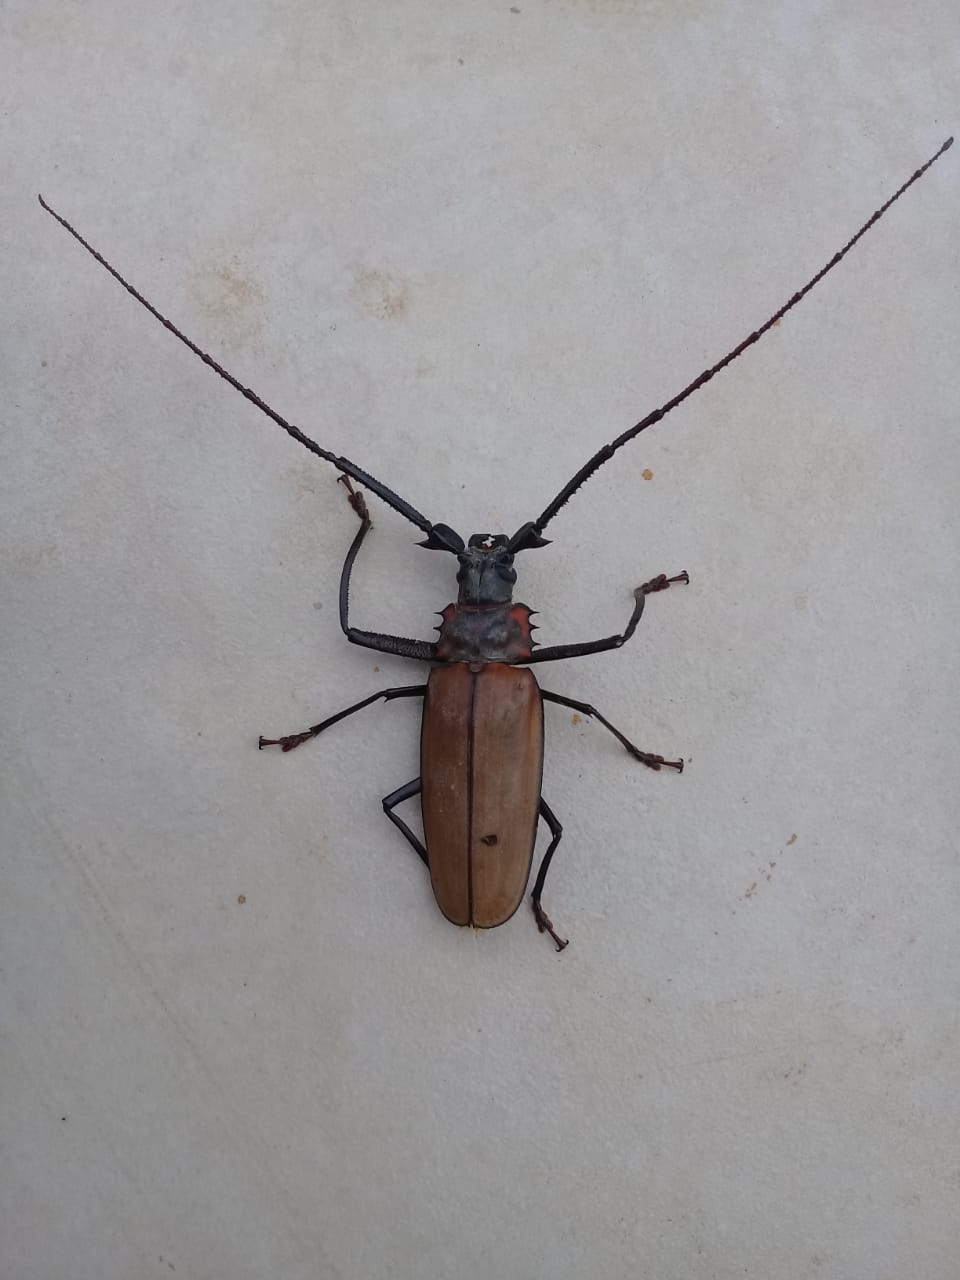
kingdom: Animalia
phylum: Arthropoda
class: Insecta
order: Coleoptera
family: Cerambycidae
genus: Enoplocerus
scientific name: Enoplocerus armillatus
